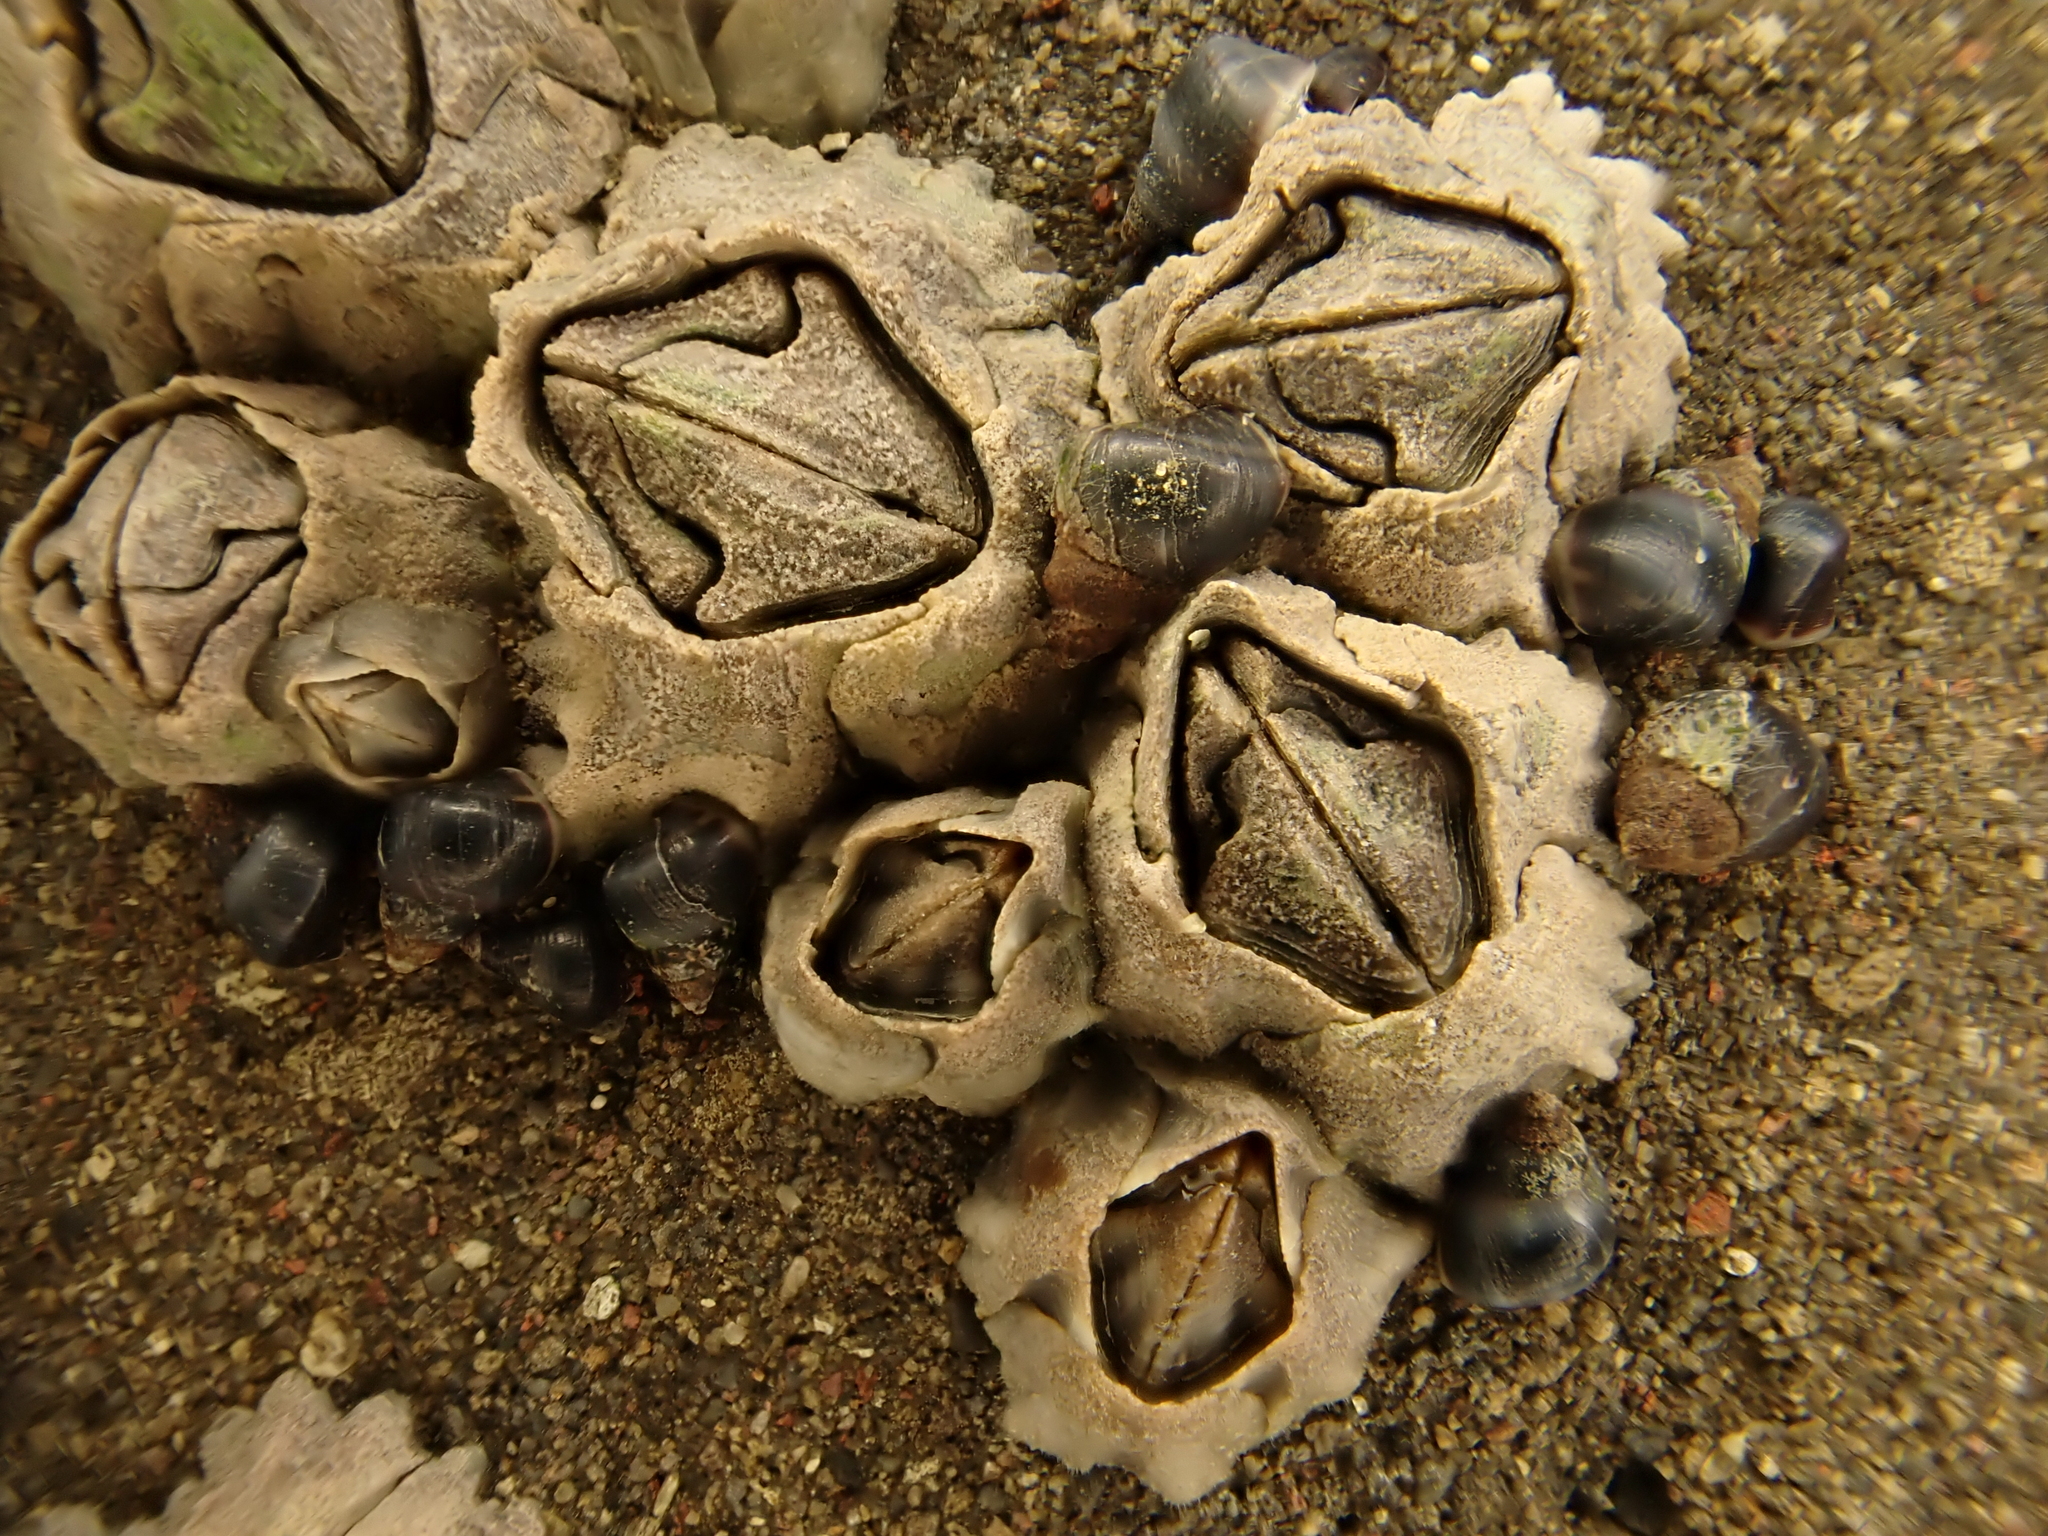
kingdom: Animalia
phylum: Arthropoda
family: Elminiidae
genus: Austrominius
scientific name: Austrominius modestus
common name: Australasian barnacle
